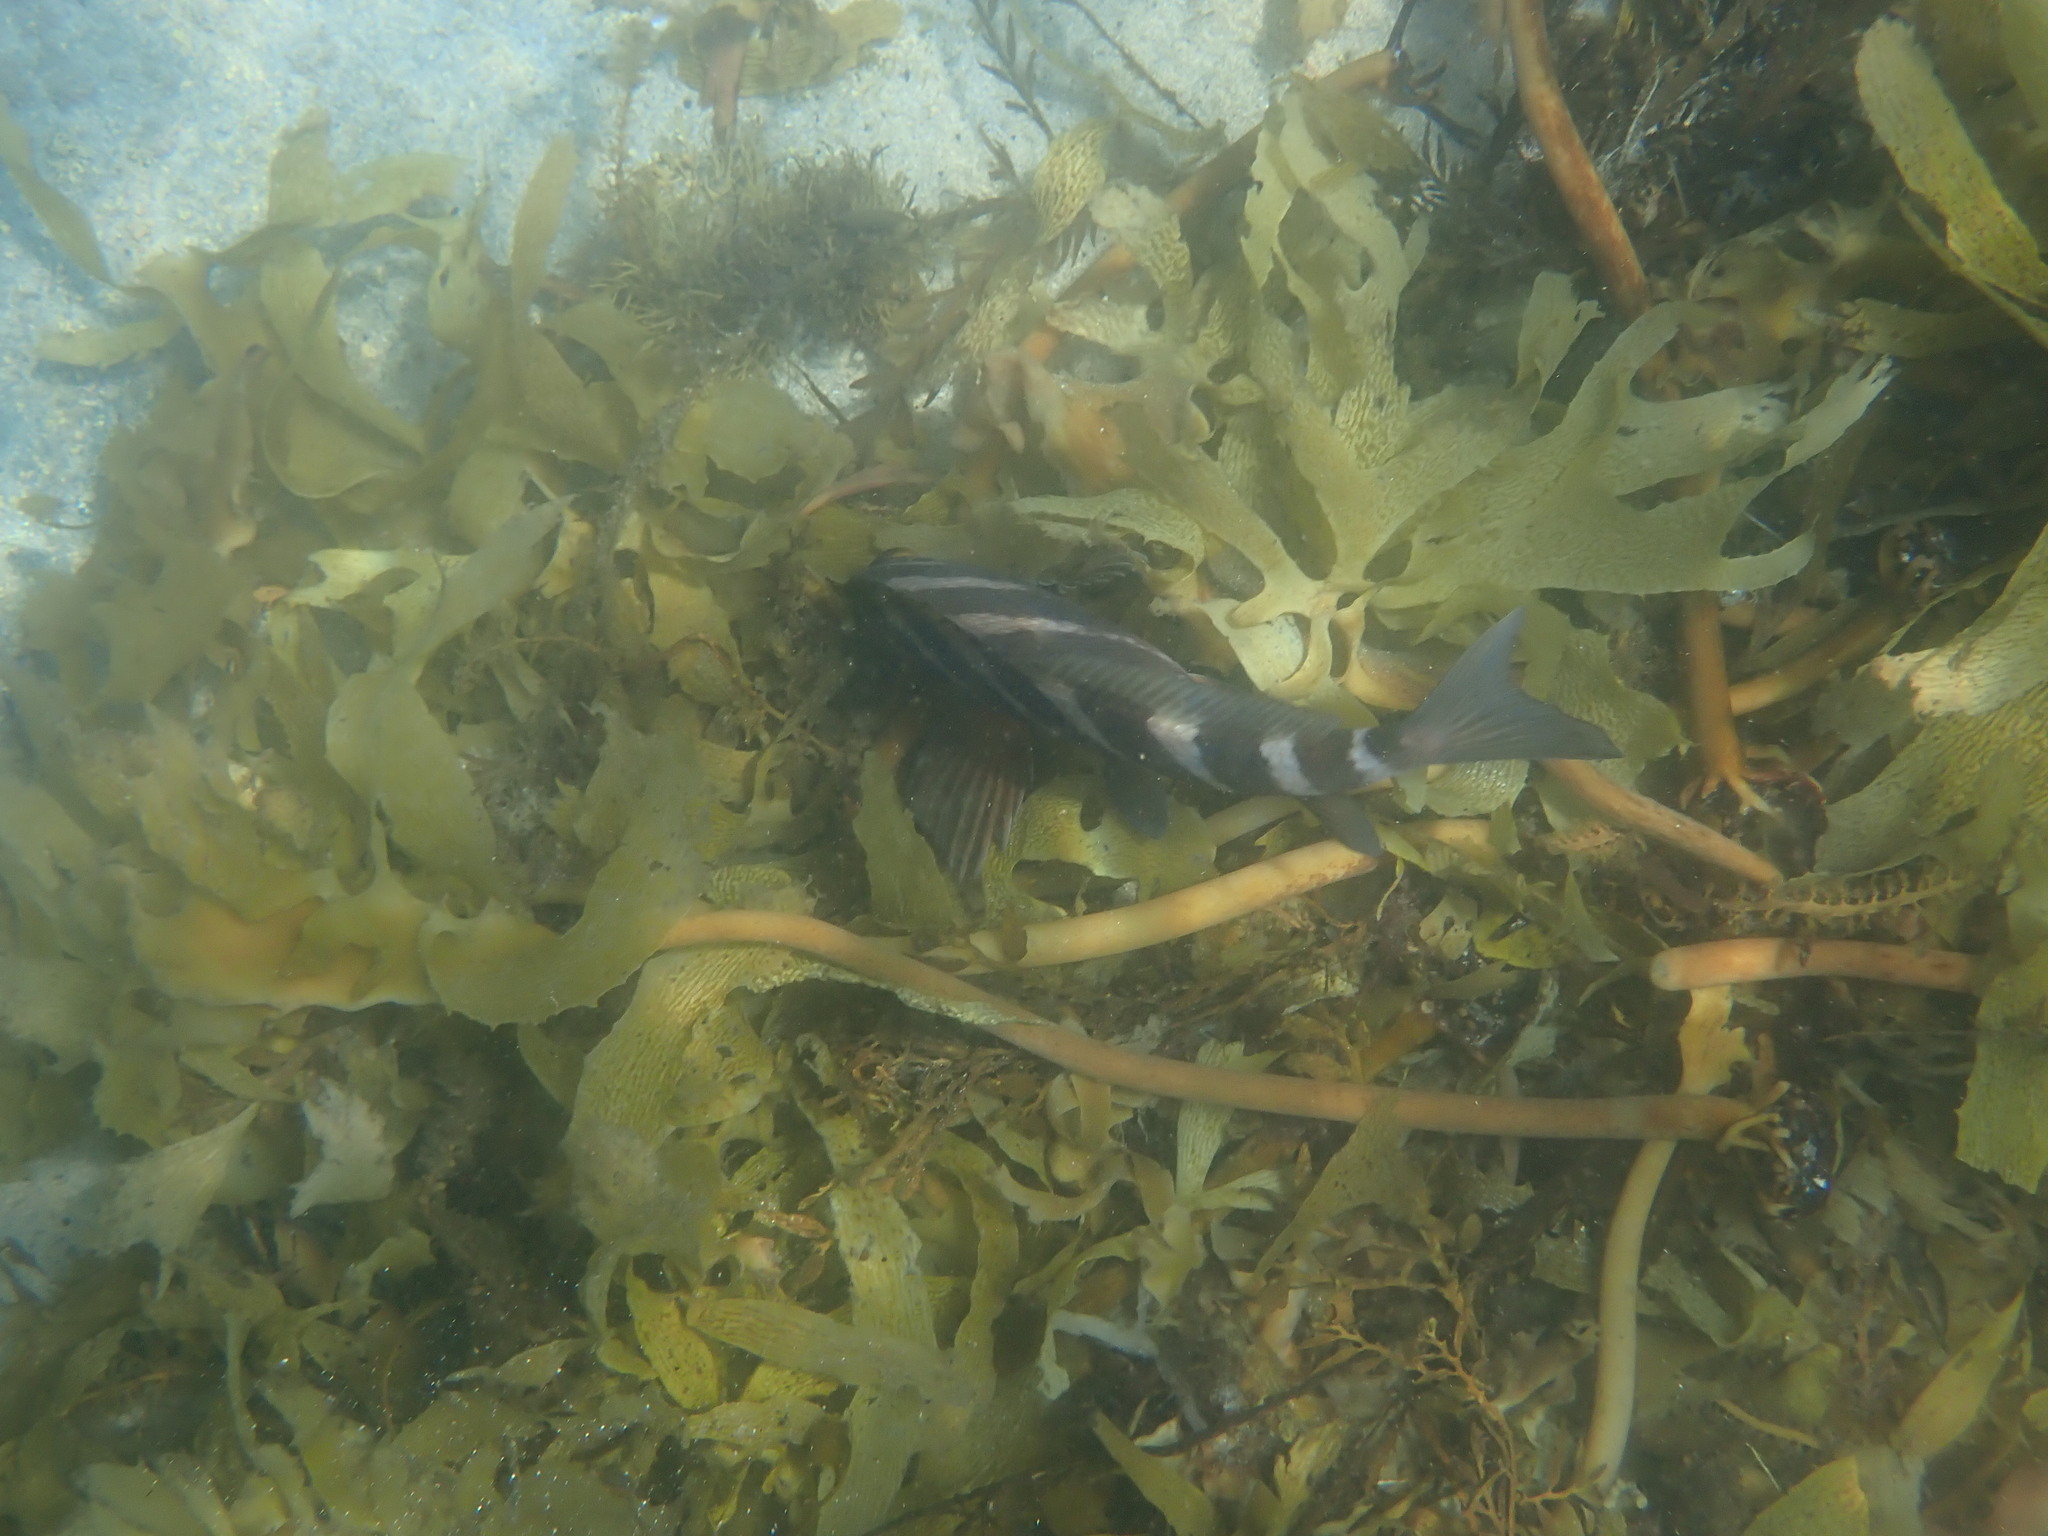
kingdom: Animalia
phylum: Chordata
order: Perciformes
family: Cheilodactylidae
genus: Cheilodactylus
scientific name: Cheilodactylus spectabilis
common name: Red moki
